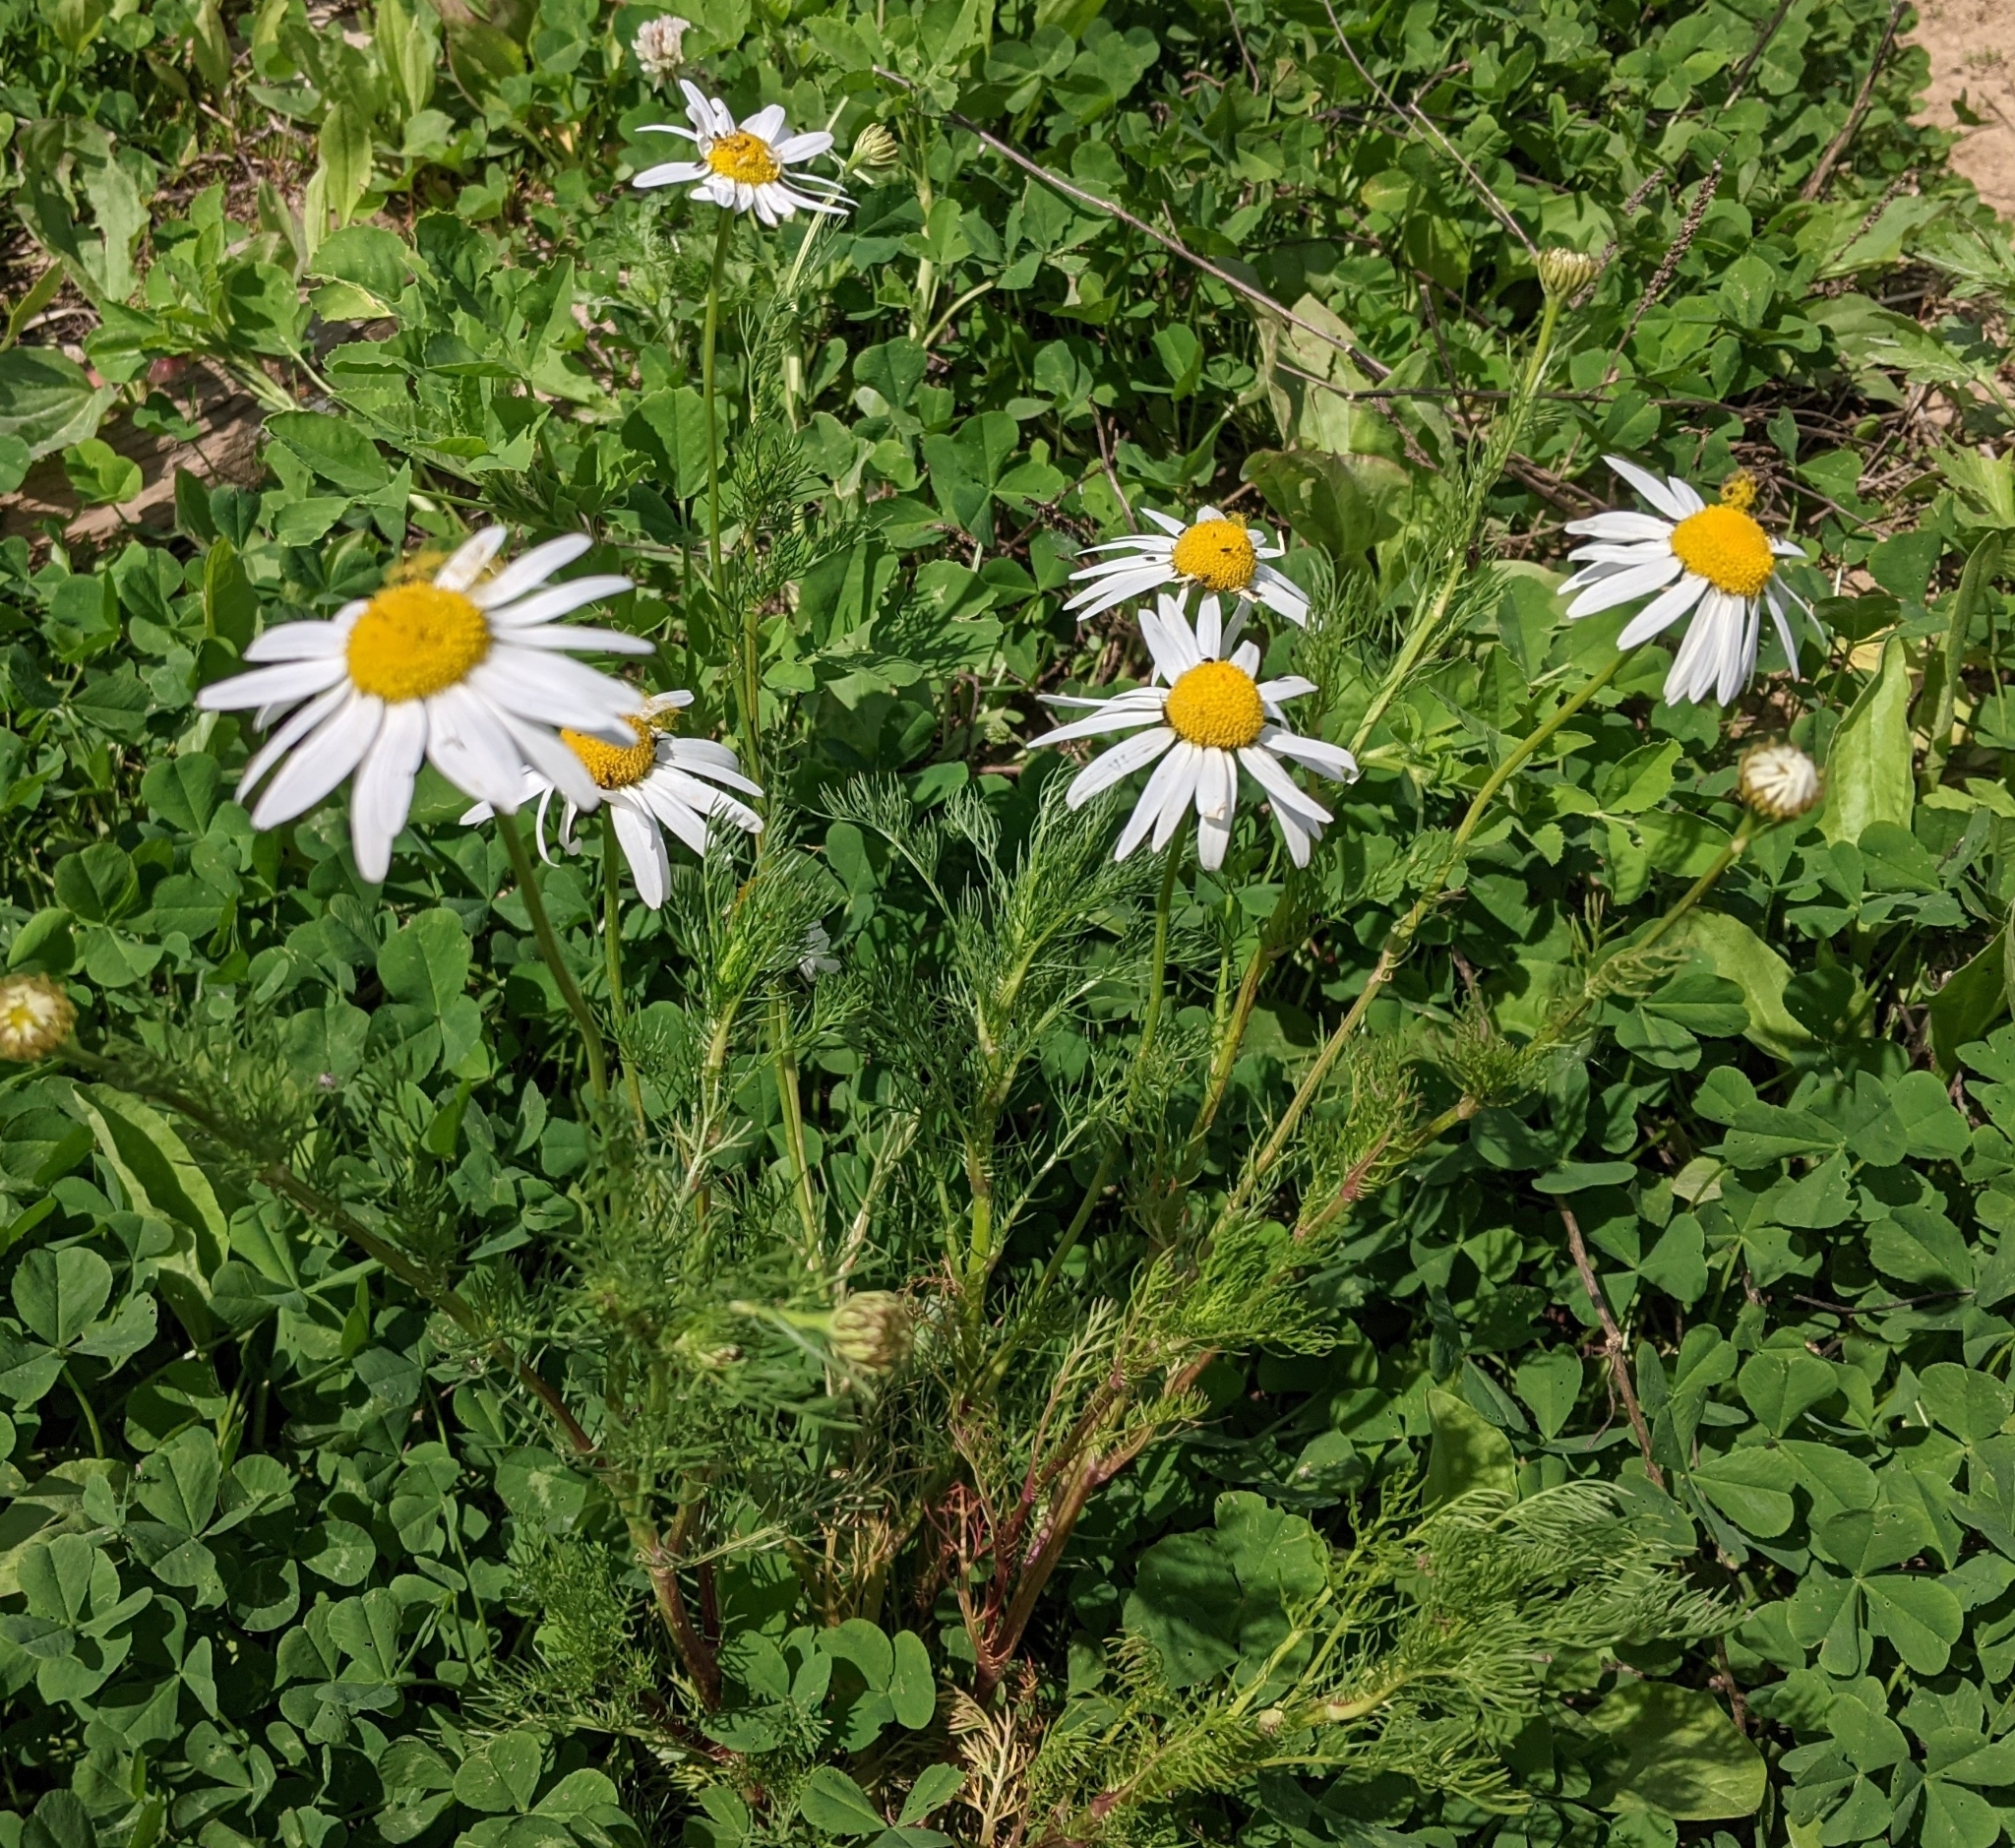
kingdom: Plantae
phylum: Tracheophyta
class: Magnoliopsida
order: Asterales
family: Asteraceae
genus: Tripleurospermum
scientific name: Tripleurospermum inodorum
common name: Scentless mayweed
